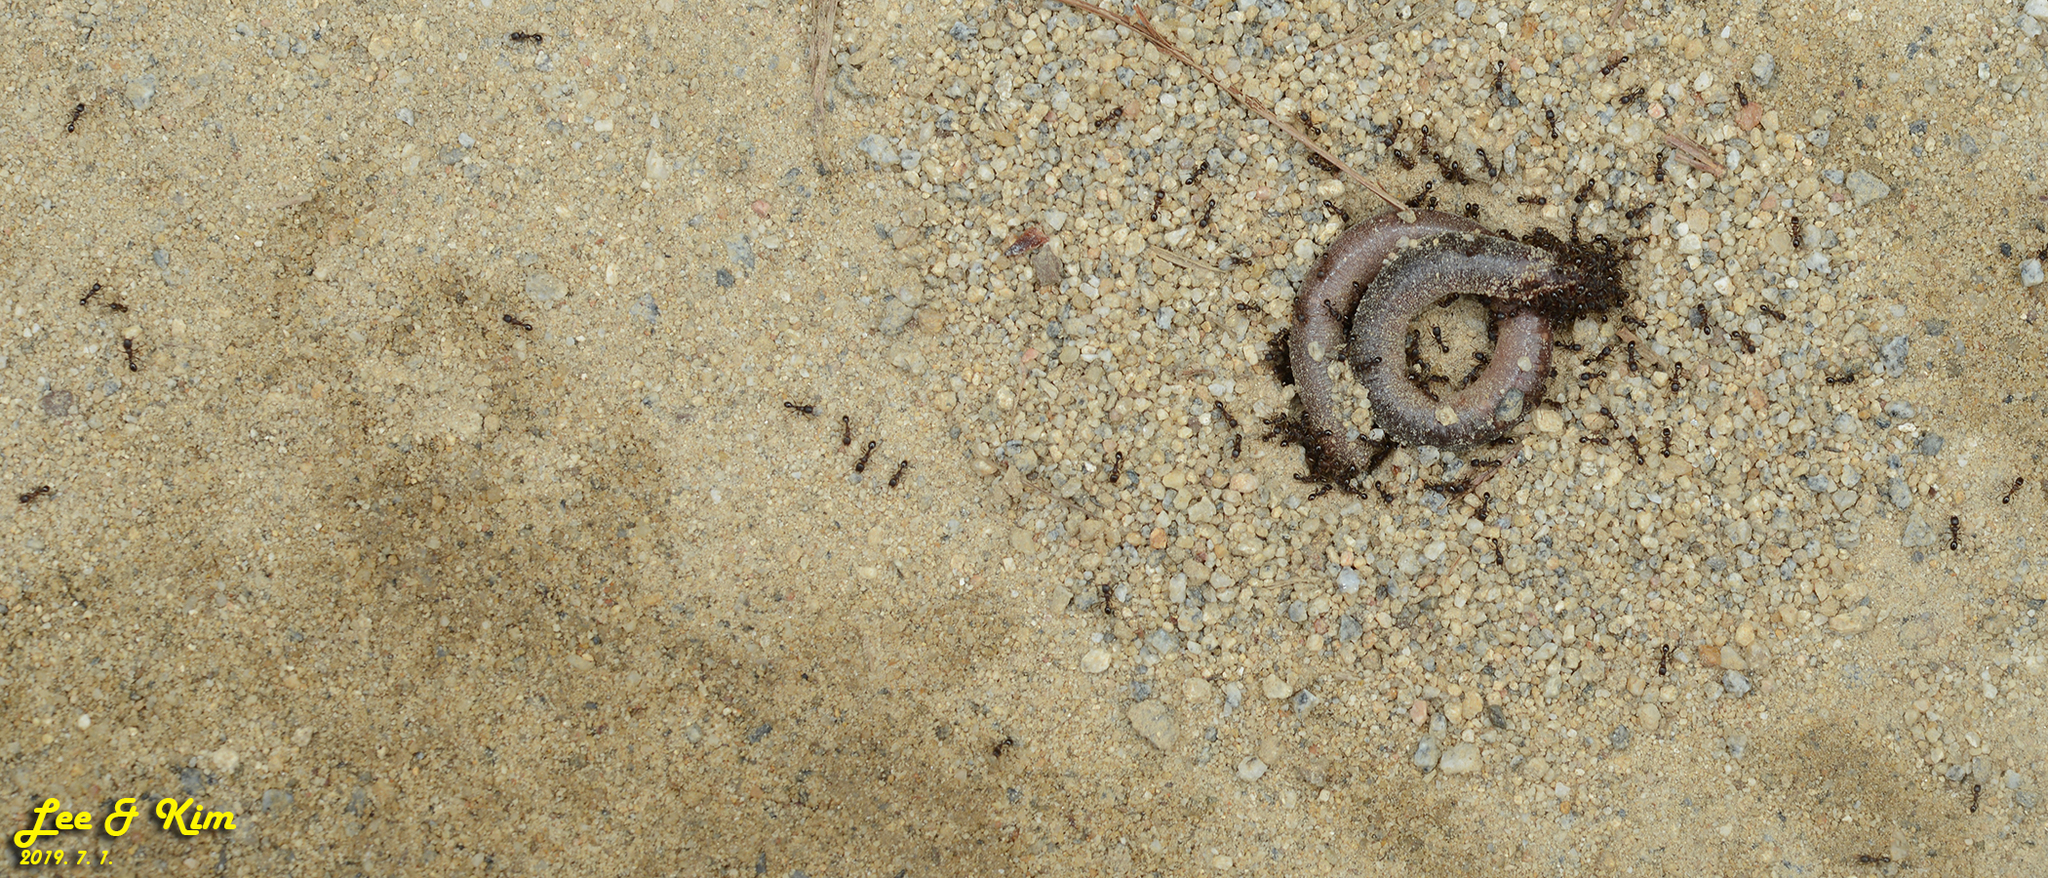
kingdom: Animalia
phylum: Arthropoda
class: Insecta
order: Hymenoptera
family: Formicidae
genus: Tetramorium
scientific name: Tetramorium tsushimae
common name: Ant
